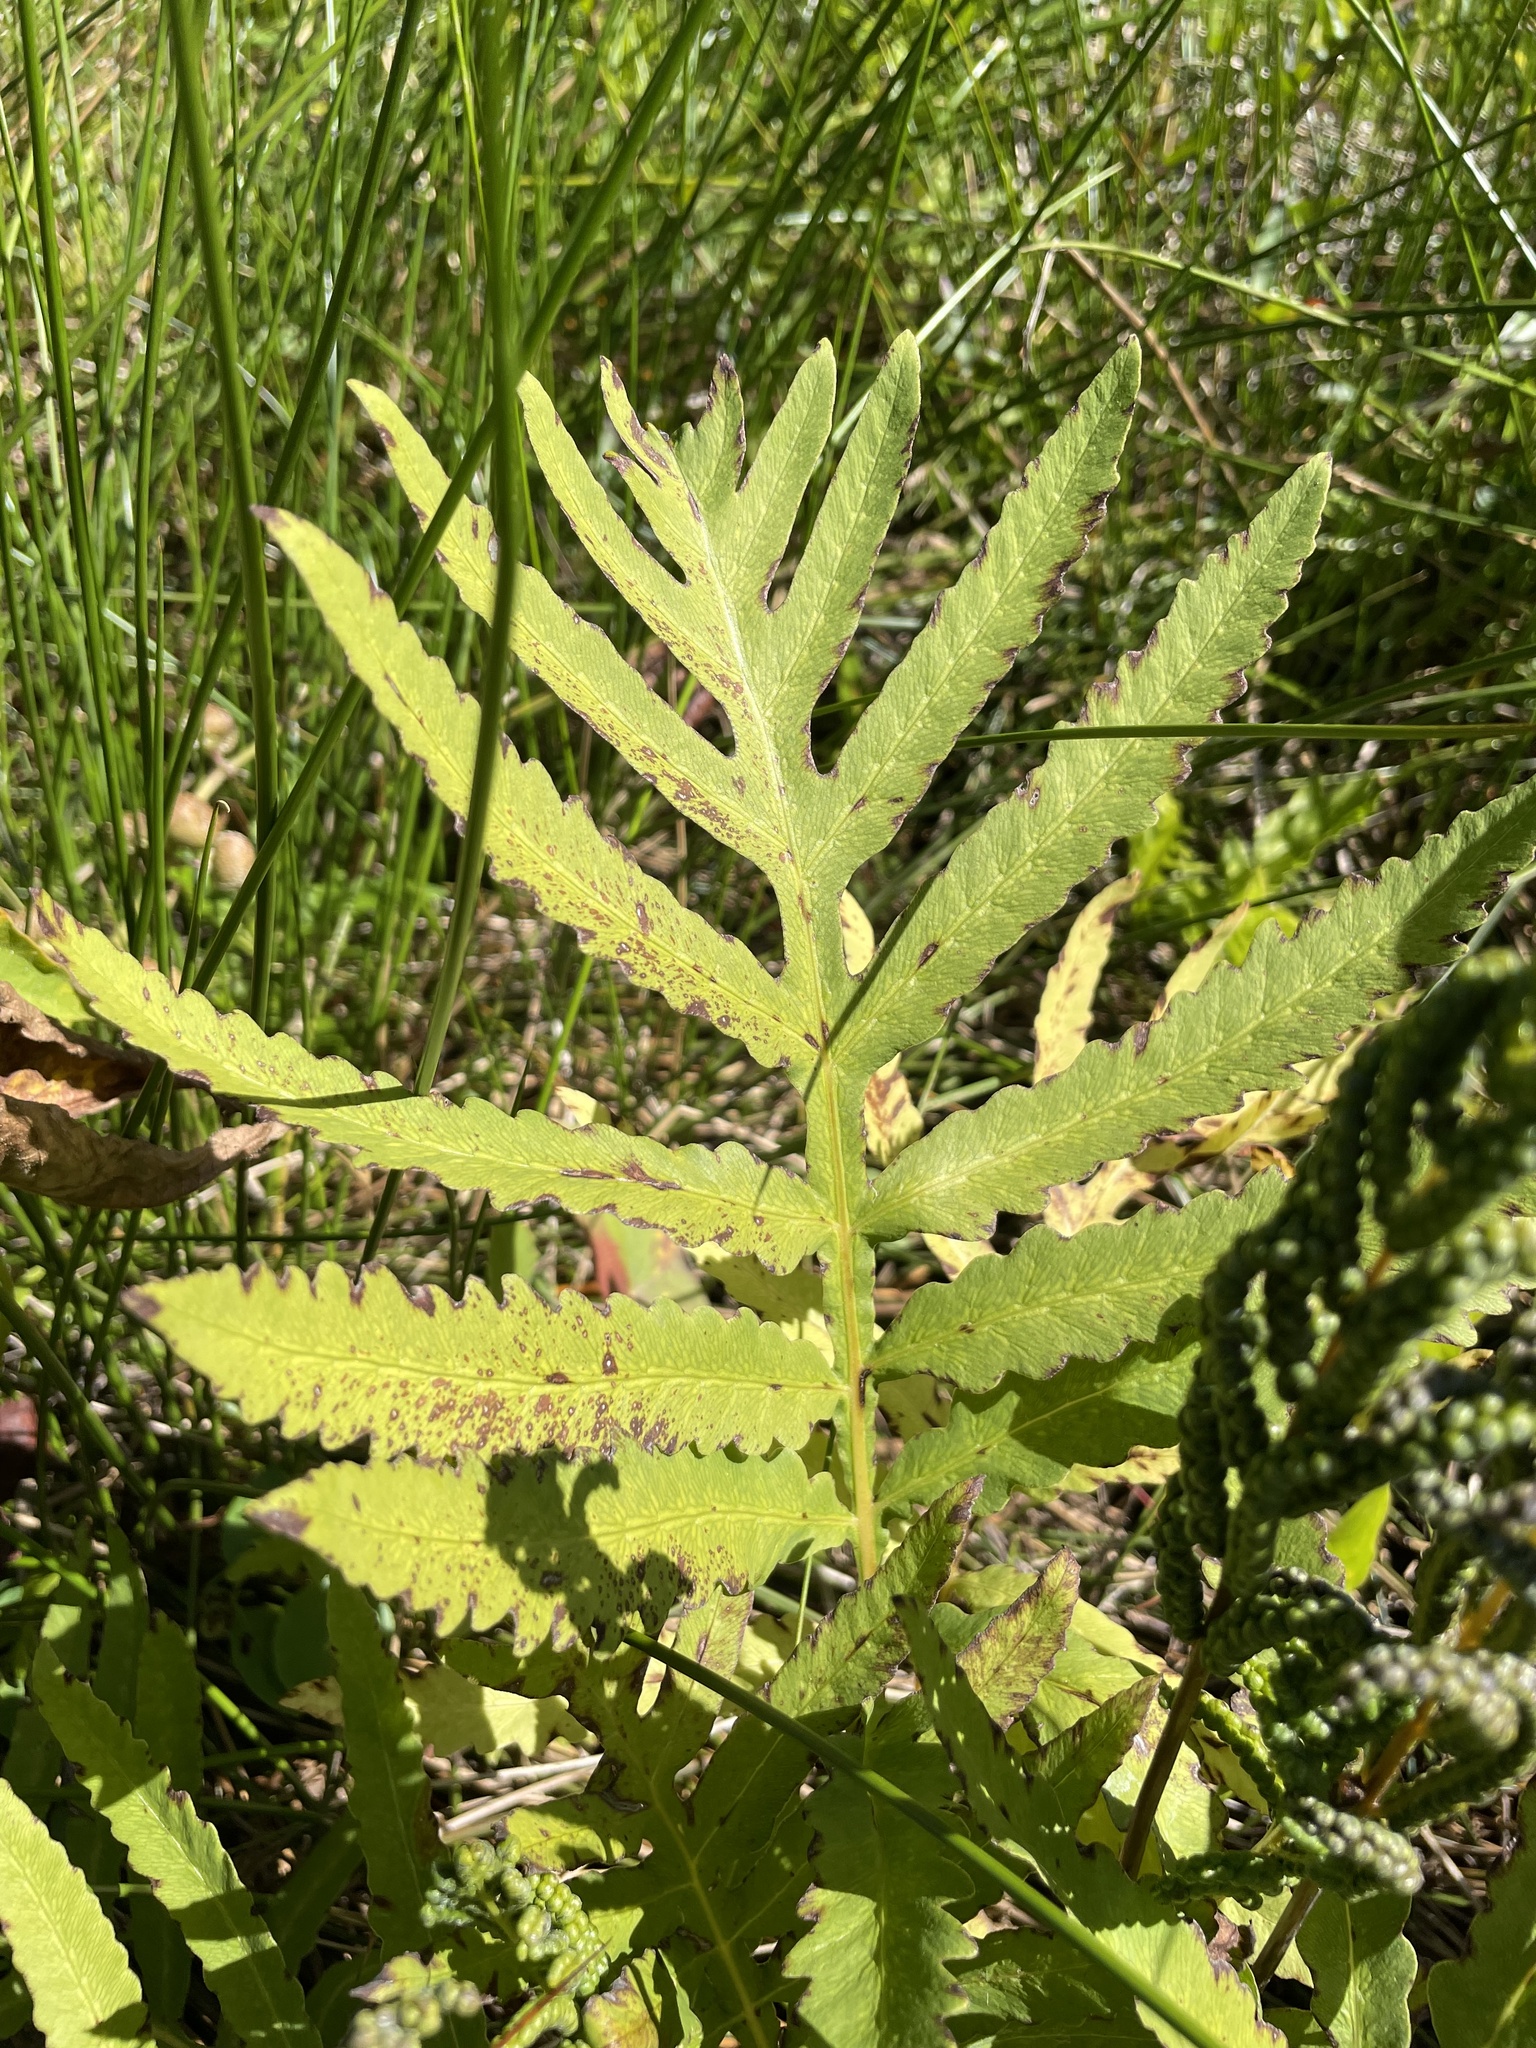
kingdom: Plantae
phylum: Tracheophyta
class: Polypodiopsida
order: Polypodiales
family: Onocleaceae
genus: Onoclea
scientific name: Onoclea sensibilis
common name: Sensitive fern
